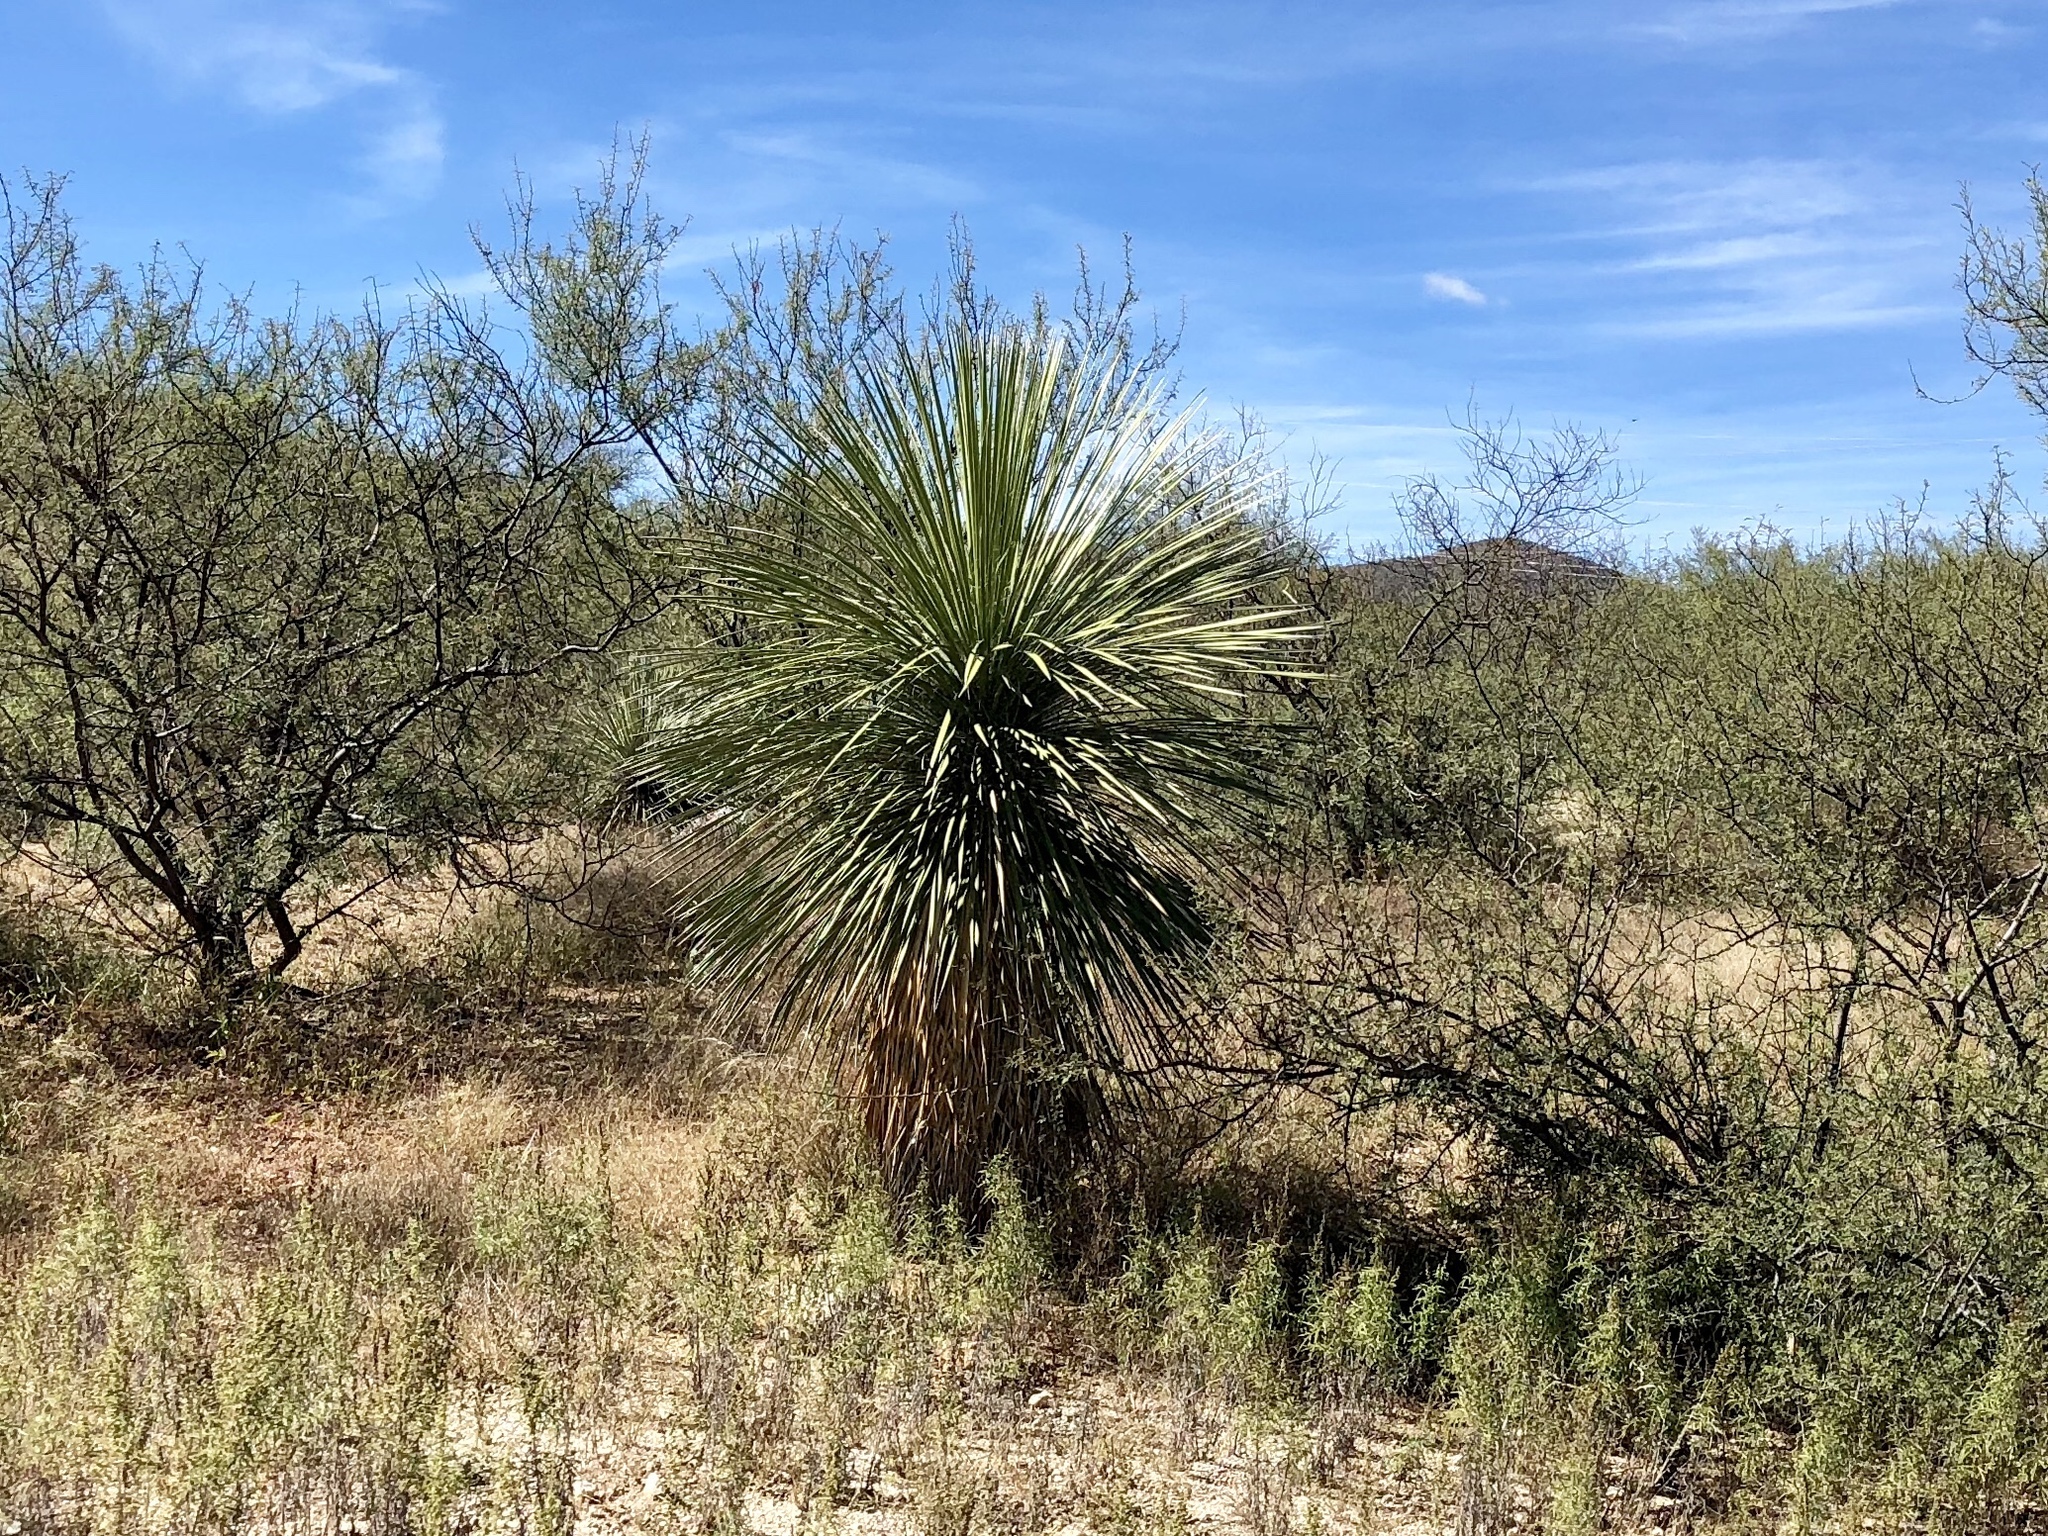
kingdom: Plantae
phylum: Tracheophyta
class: Liliopsida
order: Asparagales
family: Asparagaceae
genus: Yucca
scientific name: Yucca elata
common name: Palmella
